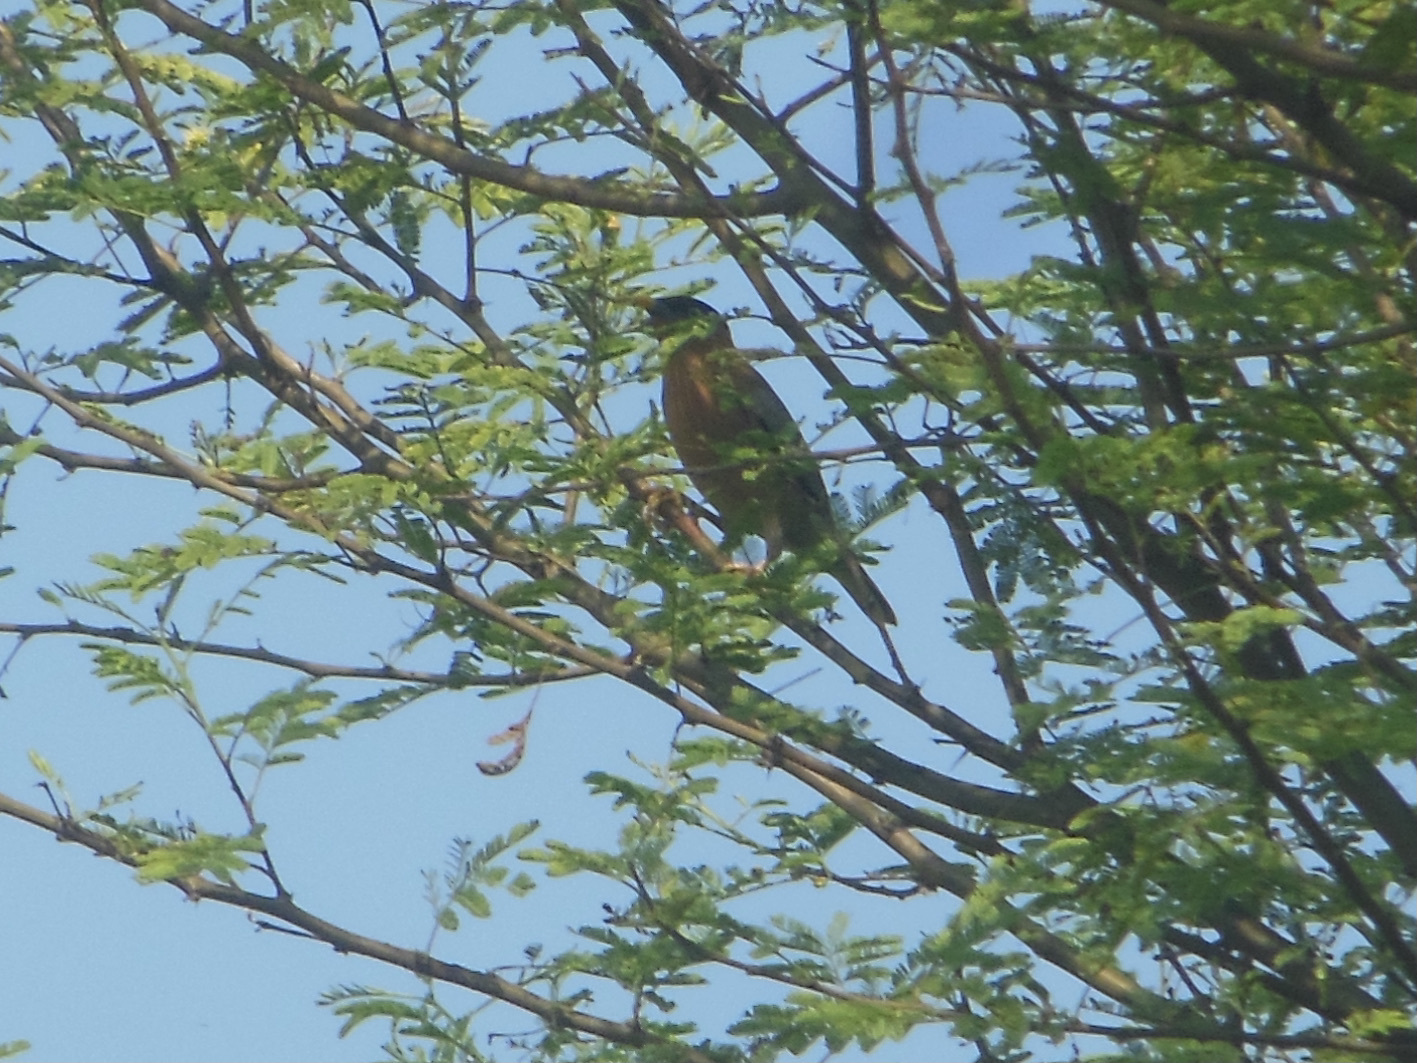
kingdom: Animalia
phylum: Chordata
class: Aves
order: Passeriformes
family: Sturnidae
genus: Sturnia
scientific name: Sturnia pagodarum
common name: Brahminy starling
